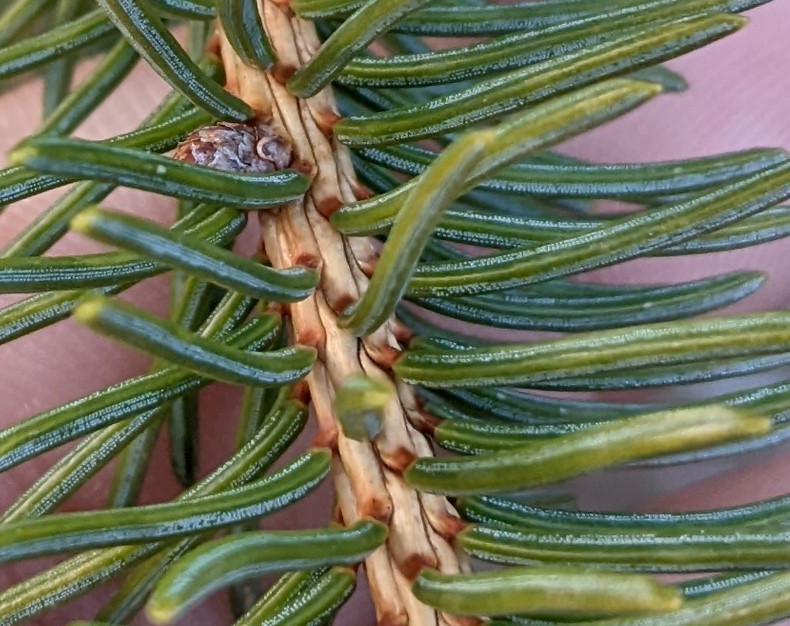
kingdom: Plantae
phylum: Tracheophyta
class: Pinopsida
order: Pinales
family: Pinaceae
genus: Picea
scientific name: Picea glauca
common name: White spruce
